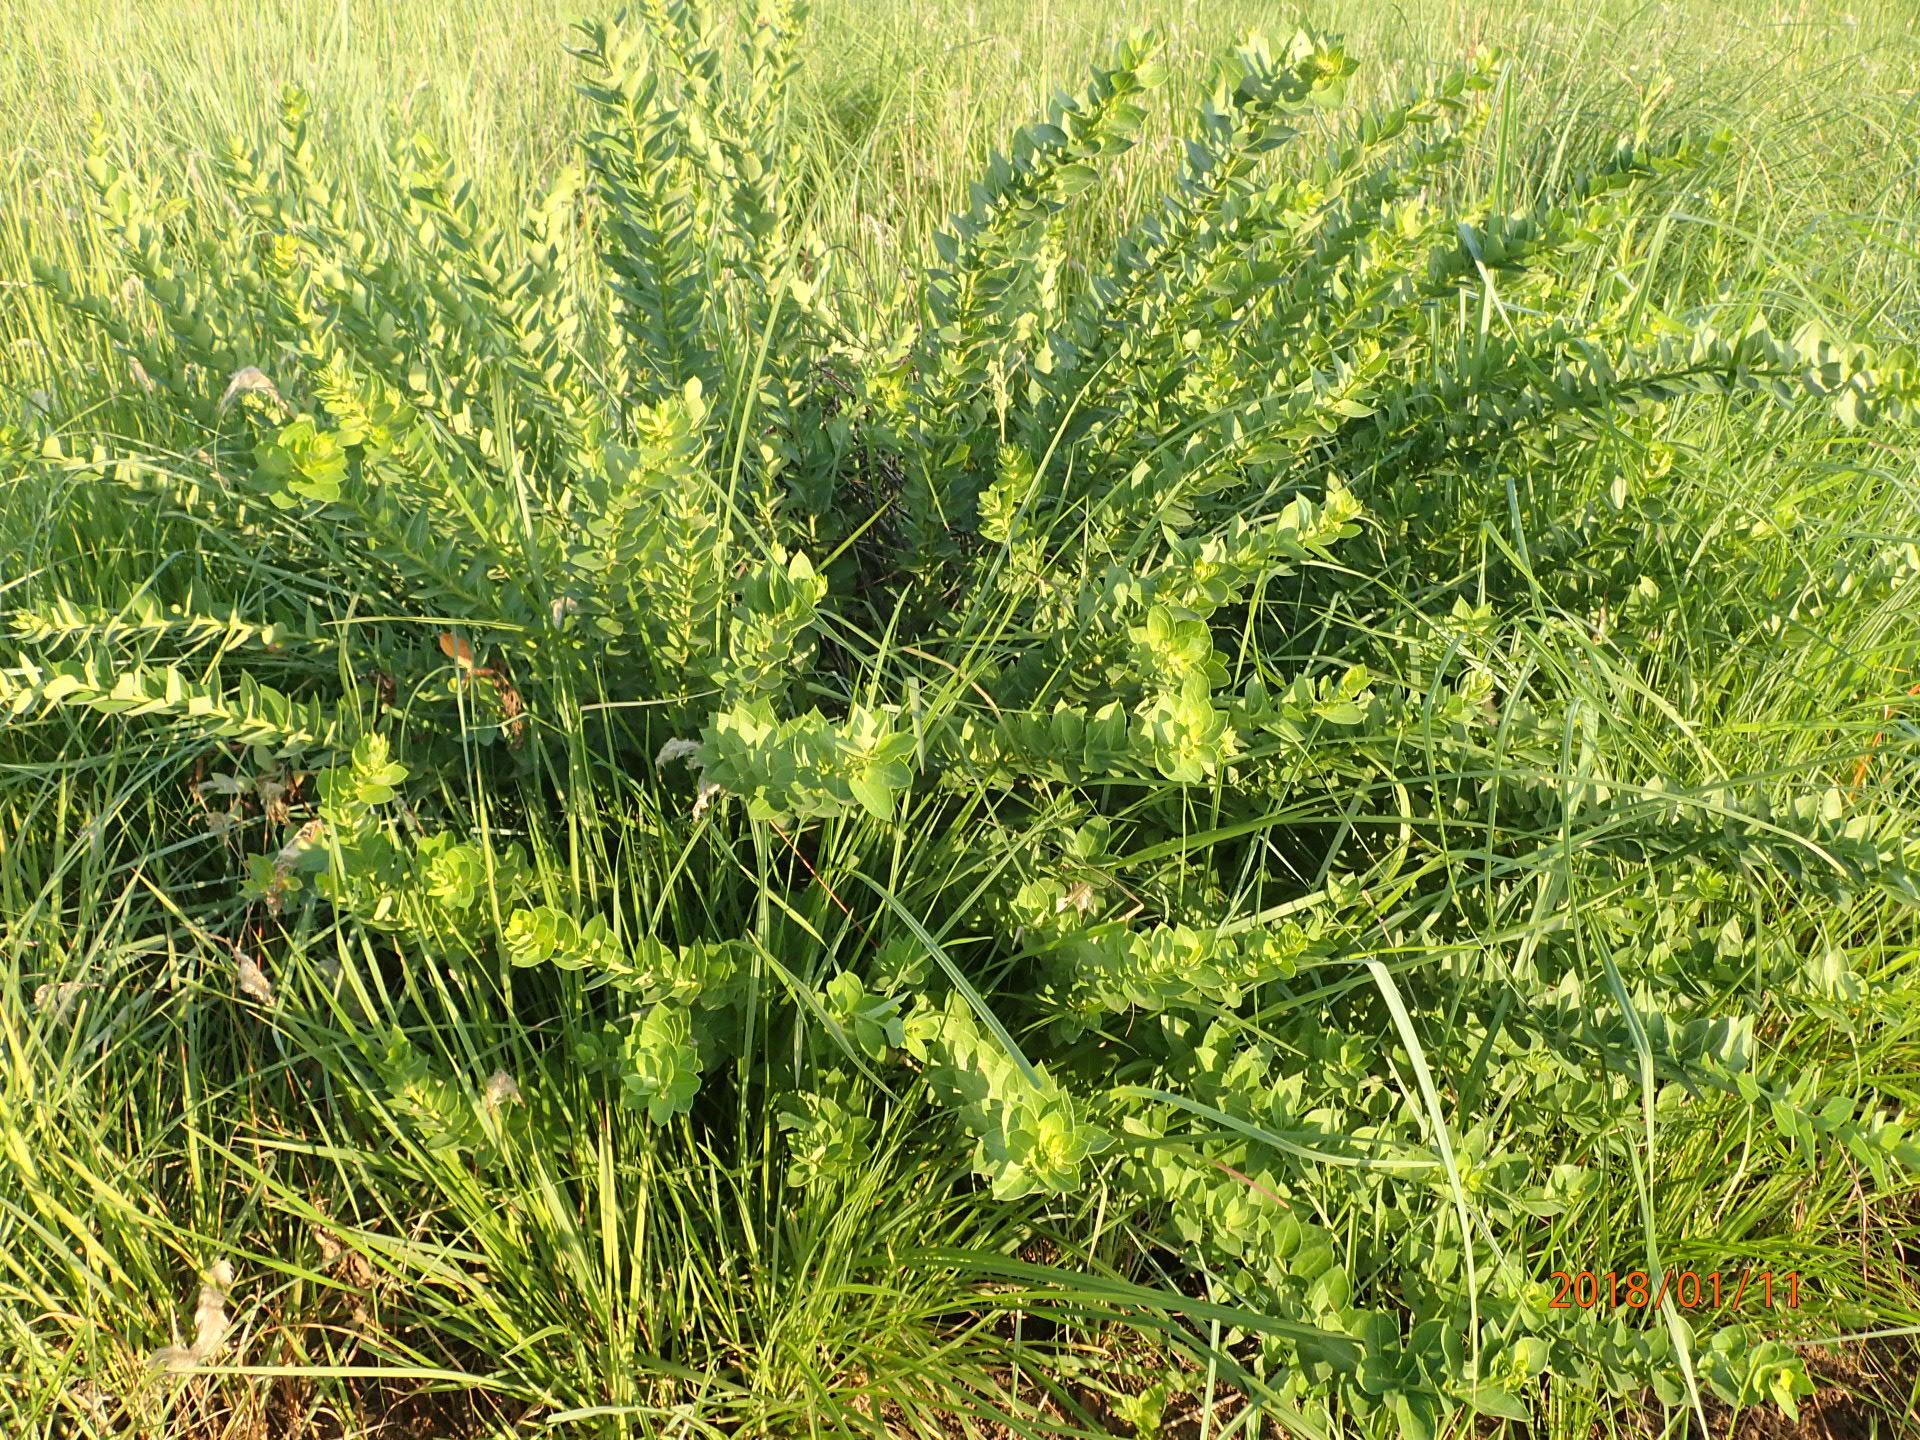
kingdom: Plantae
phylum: Tracheophyta
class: Magnoliopsida
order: Malpighiales
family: Peraceae
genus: Clutia
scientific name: Clutia cordata
